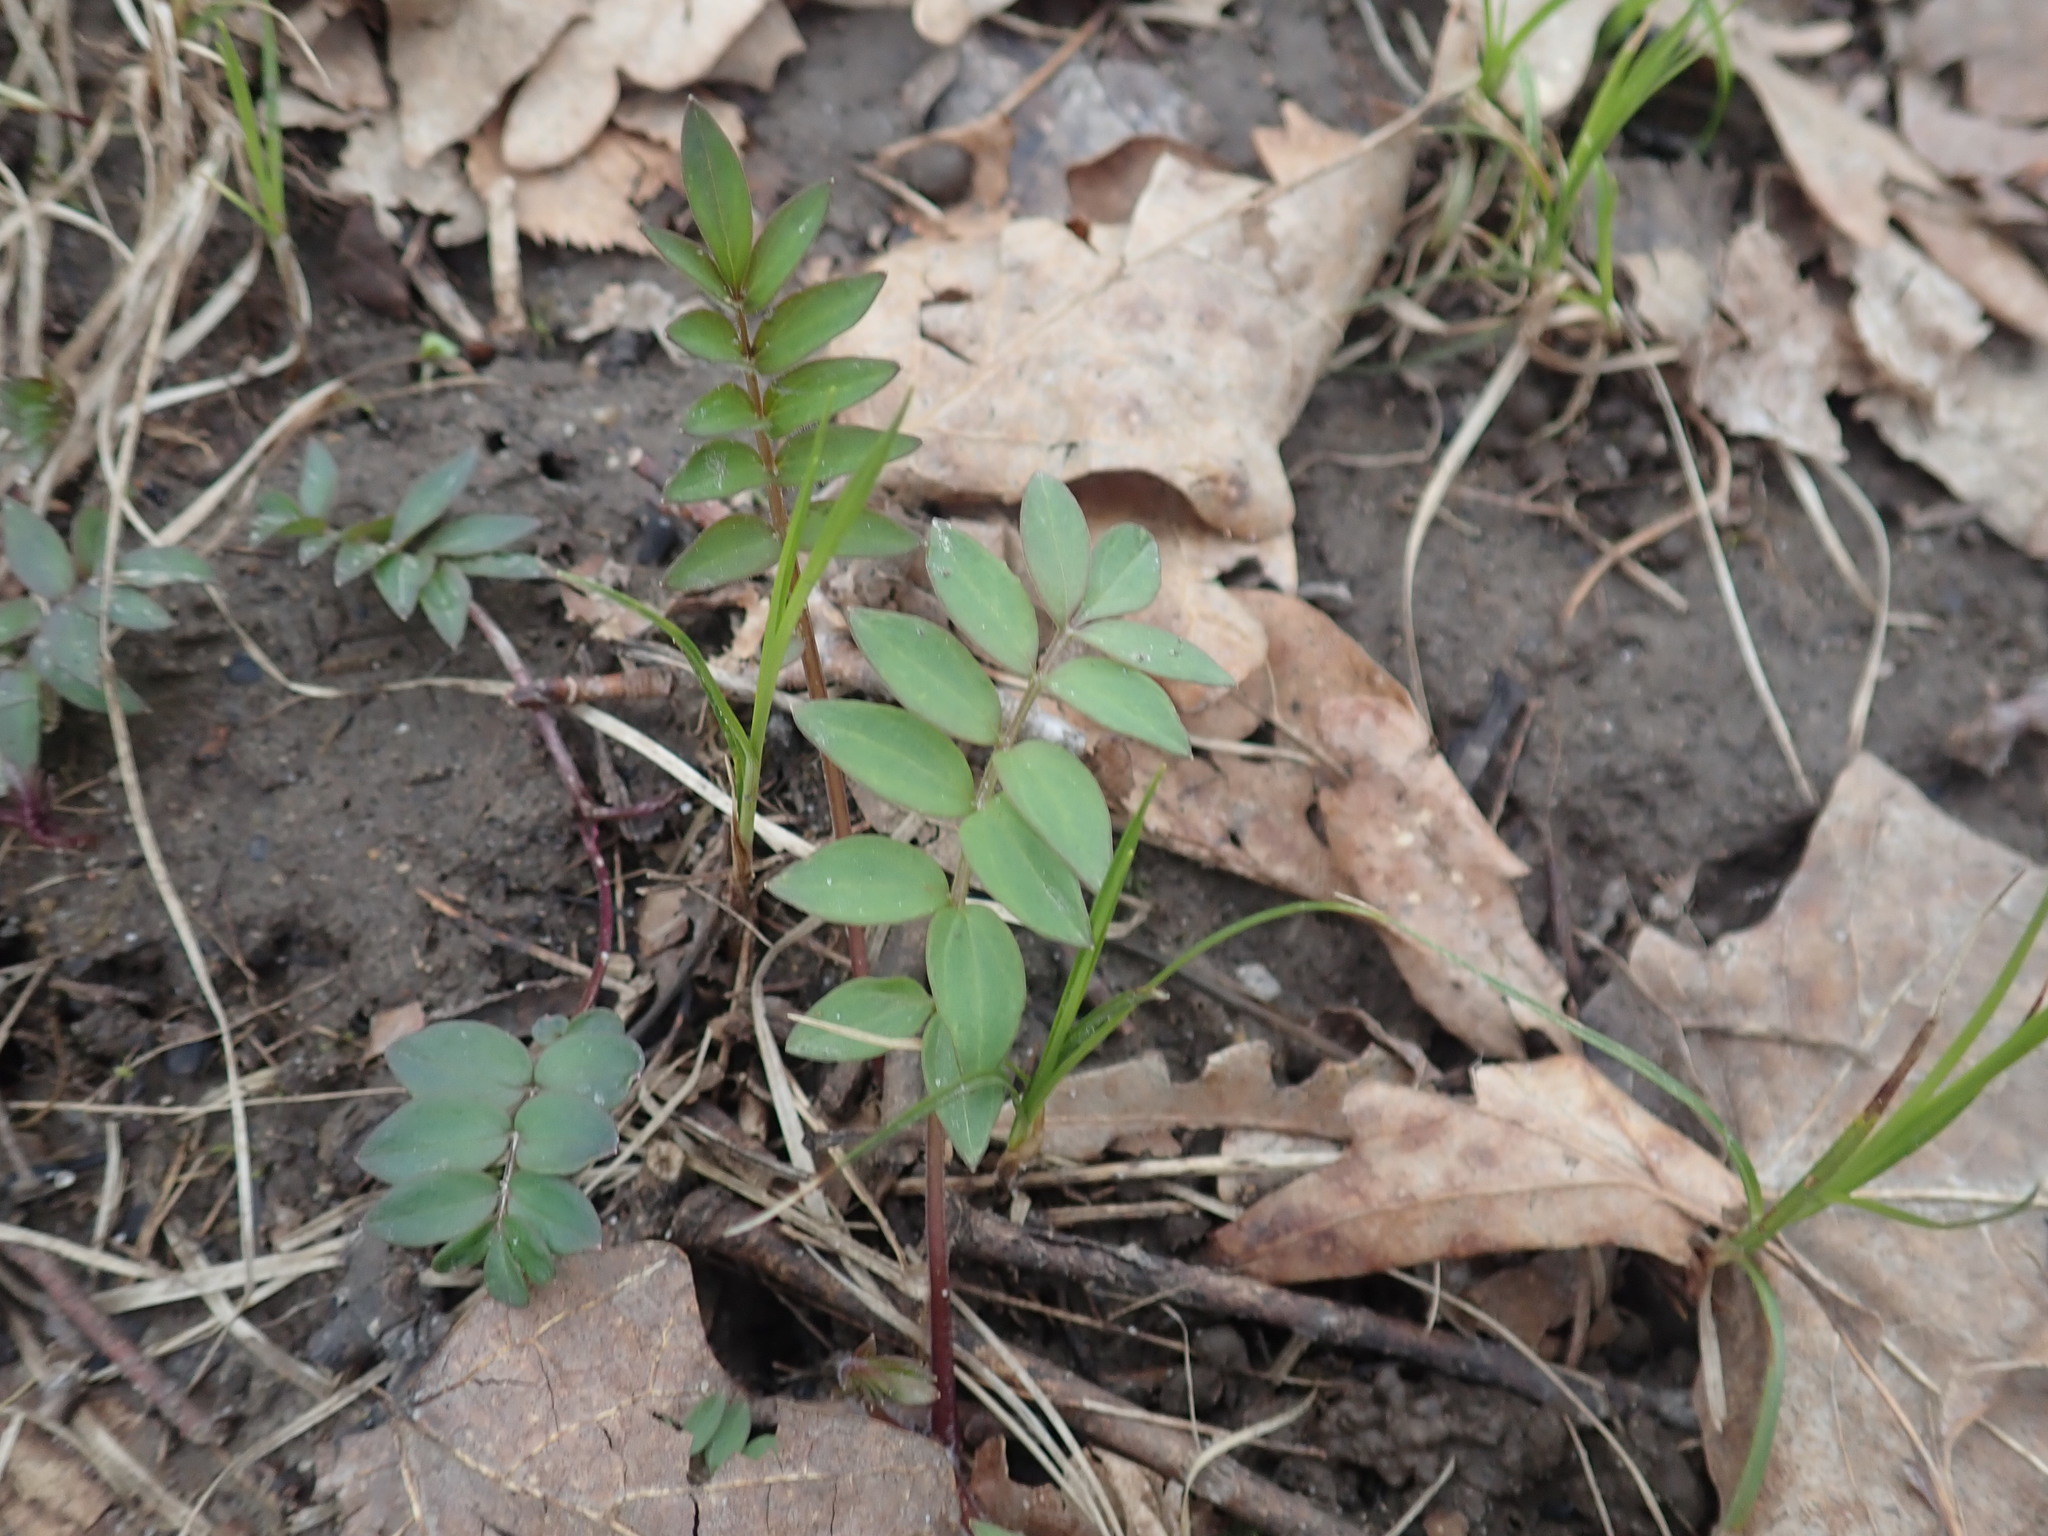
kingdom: Plantae
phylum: Tracheophyta
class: Magnoliopsida
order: Ericales
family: Polemoniaceae
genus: Polemonium
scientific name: Polemonium reptans
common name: Creeping jacob's-ladder
